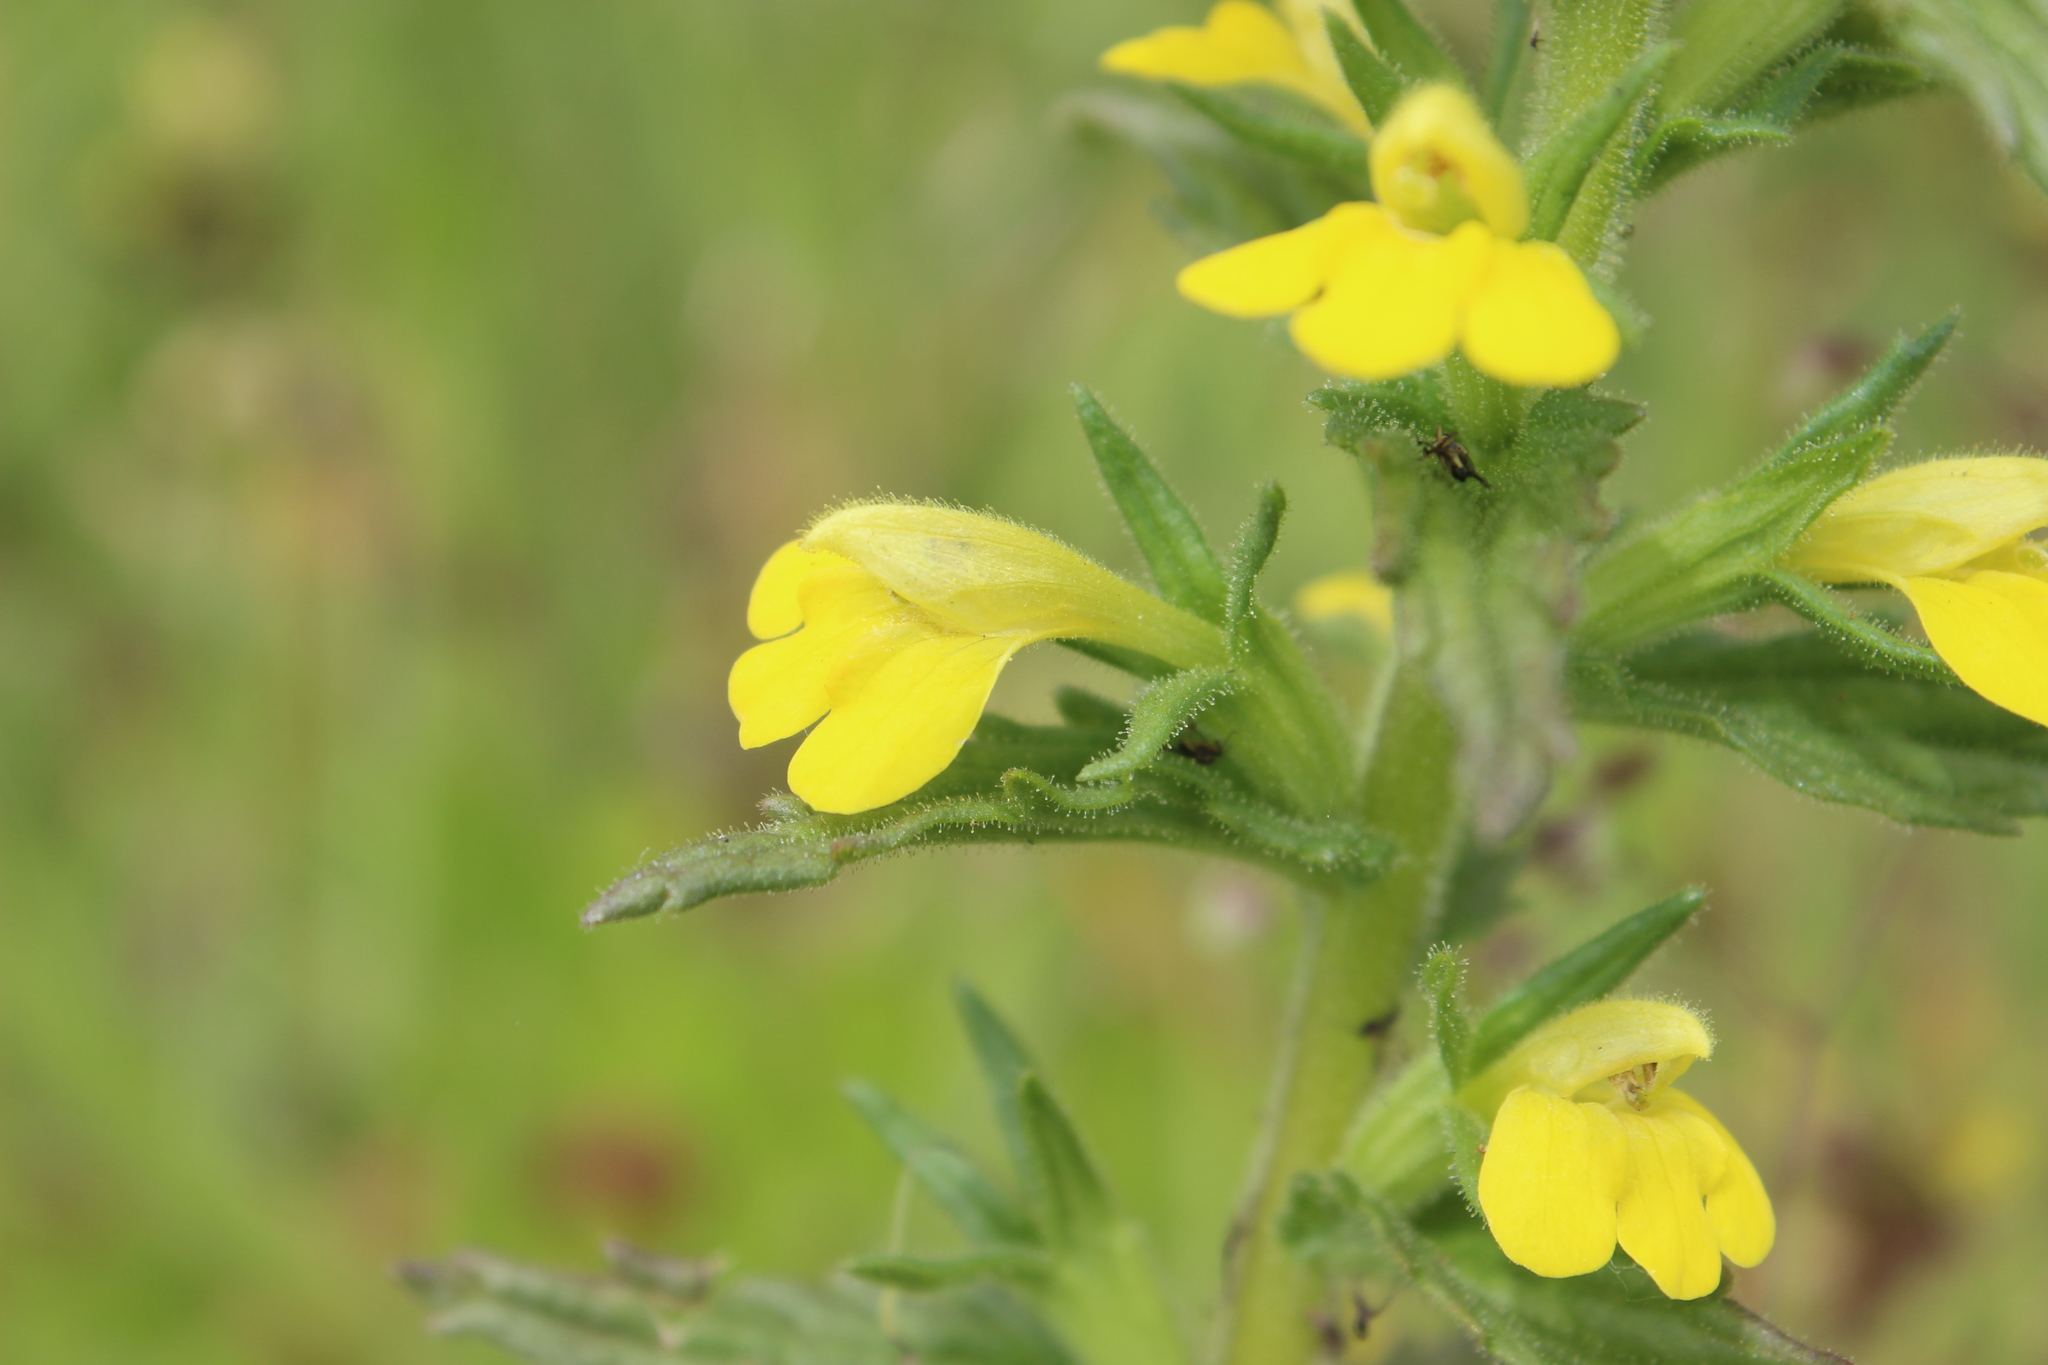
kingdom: Plantae
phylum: Tracheophyta
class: Magnoliopsida
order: Lamiales
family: Orobanchaceae
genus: Bellardia
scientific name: Bellardia viscosa
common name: Sticky parentucellia
